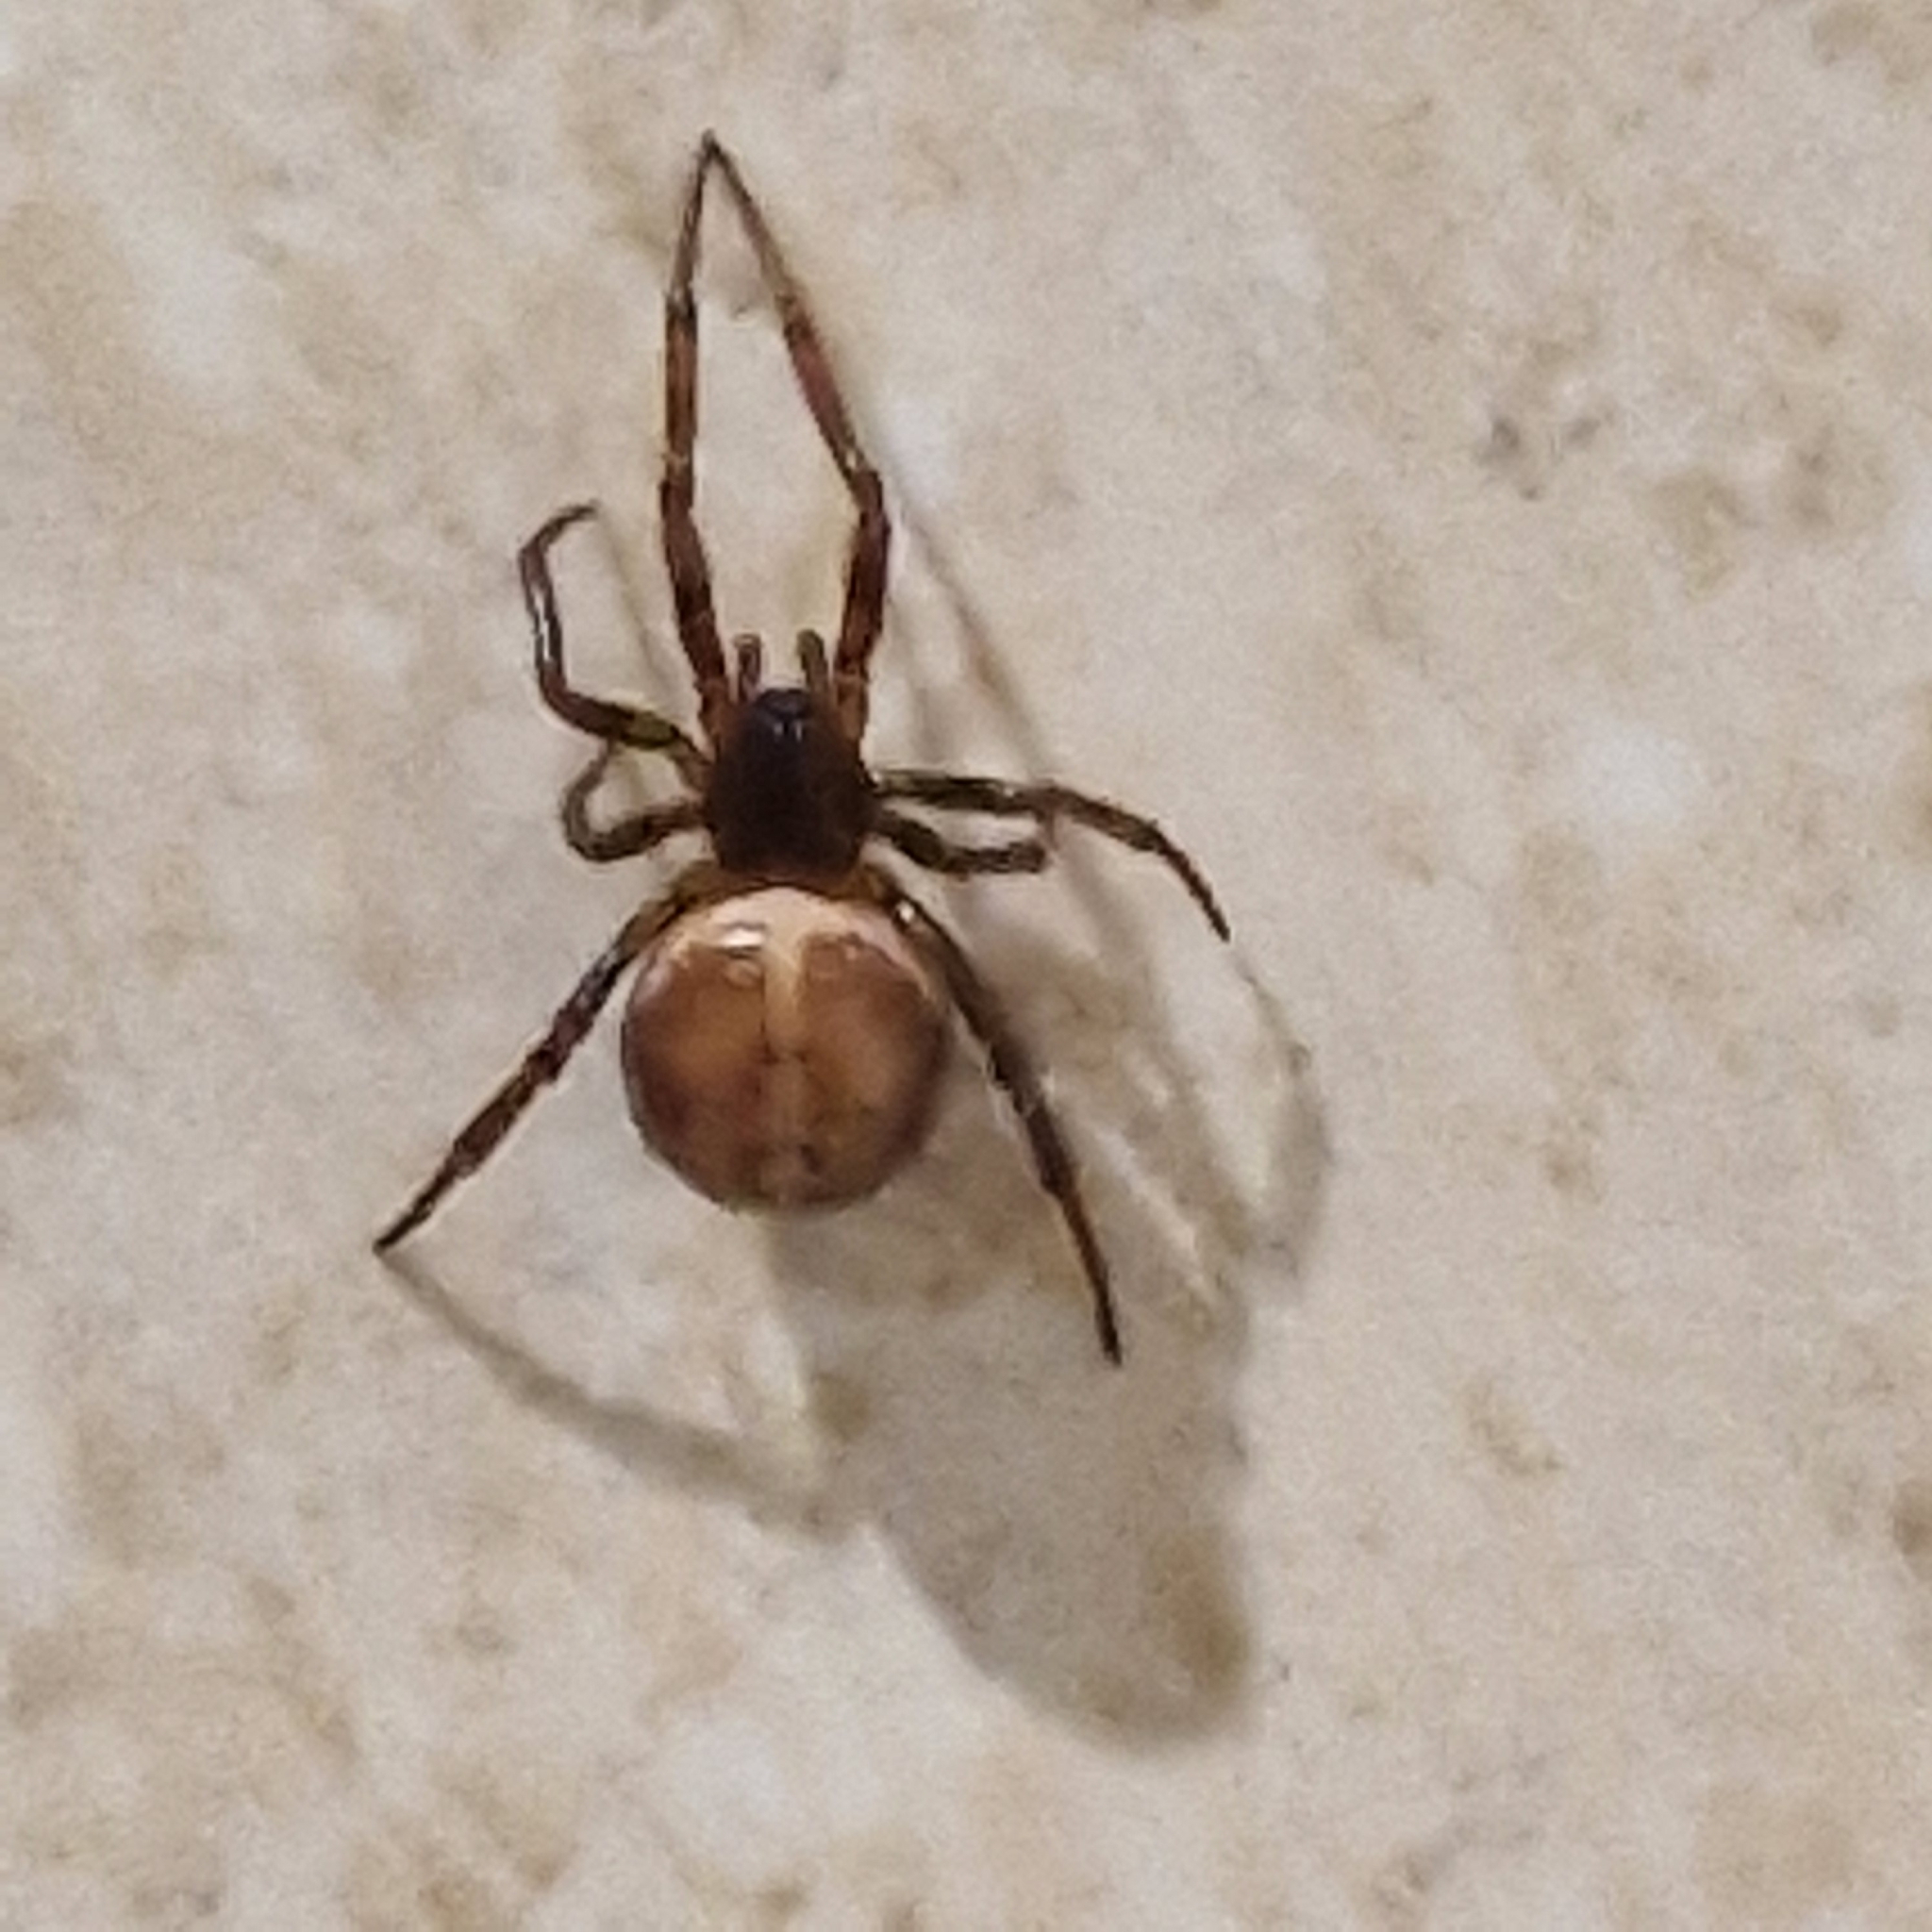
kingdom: Animalia
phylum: Arthropoda
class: Arachnida
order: Araneae
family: Theridiidae
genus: Steatoda
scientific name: Steatoda bipunctata
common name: False widow
